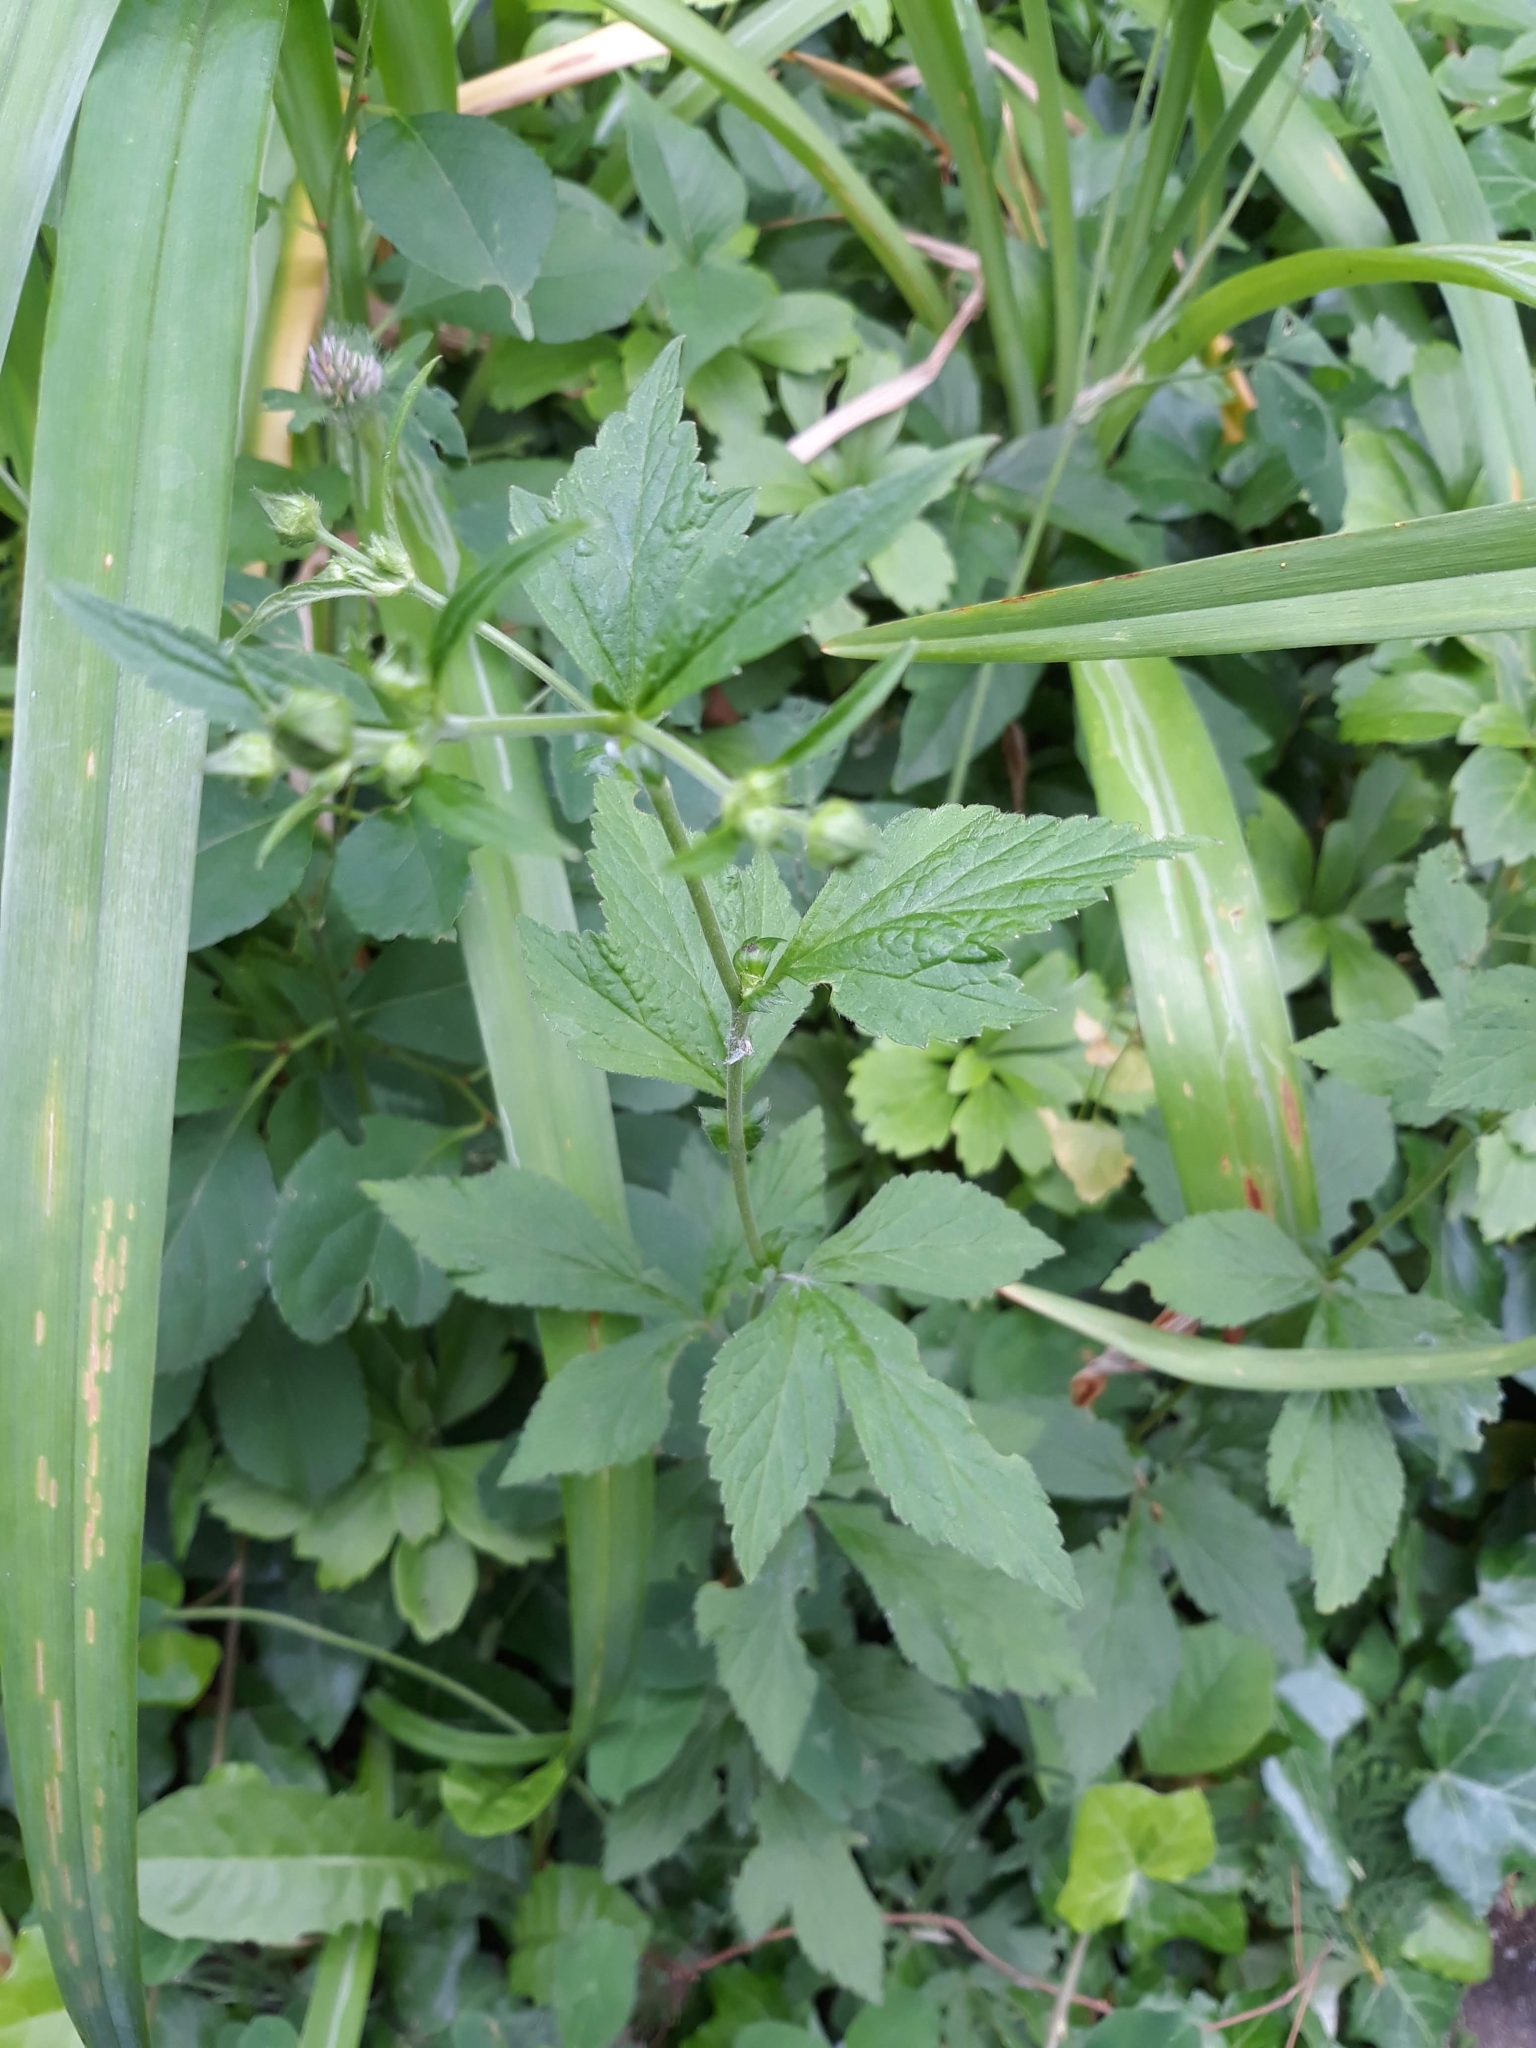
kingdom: Plantae
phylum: Tracheophyta
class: Magnoliopsida
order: Rosales
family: Rosaceae
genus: Geum
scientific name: Geum canadense
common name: White avens
